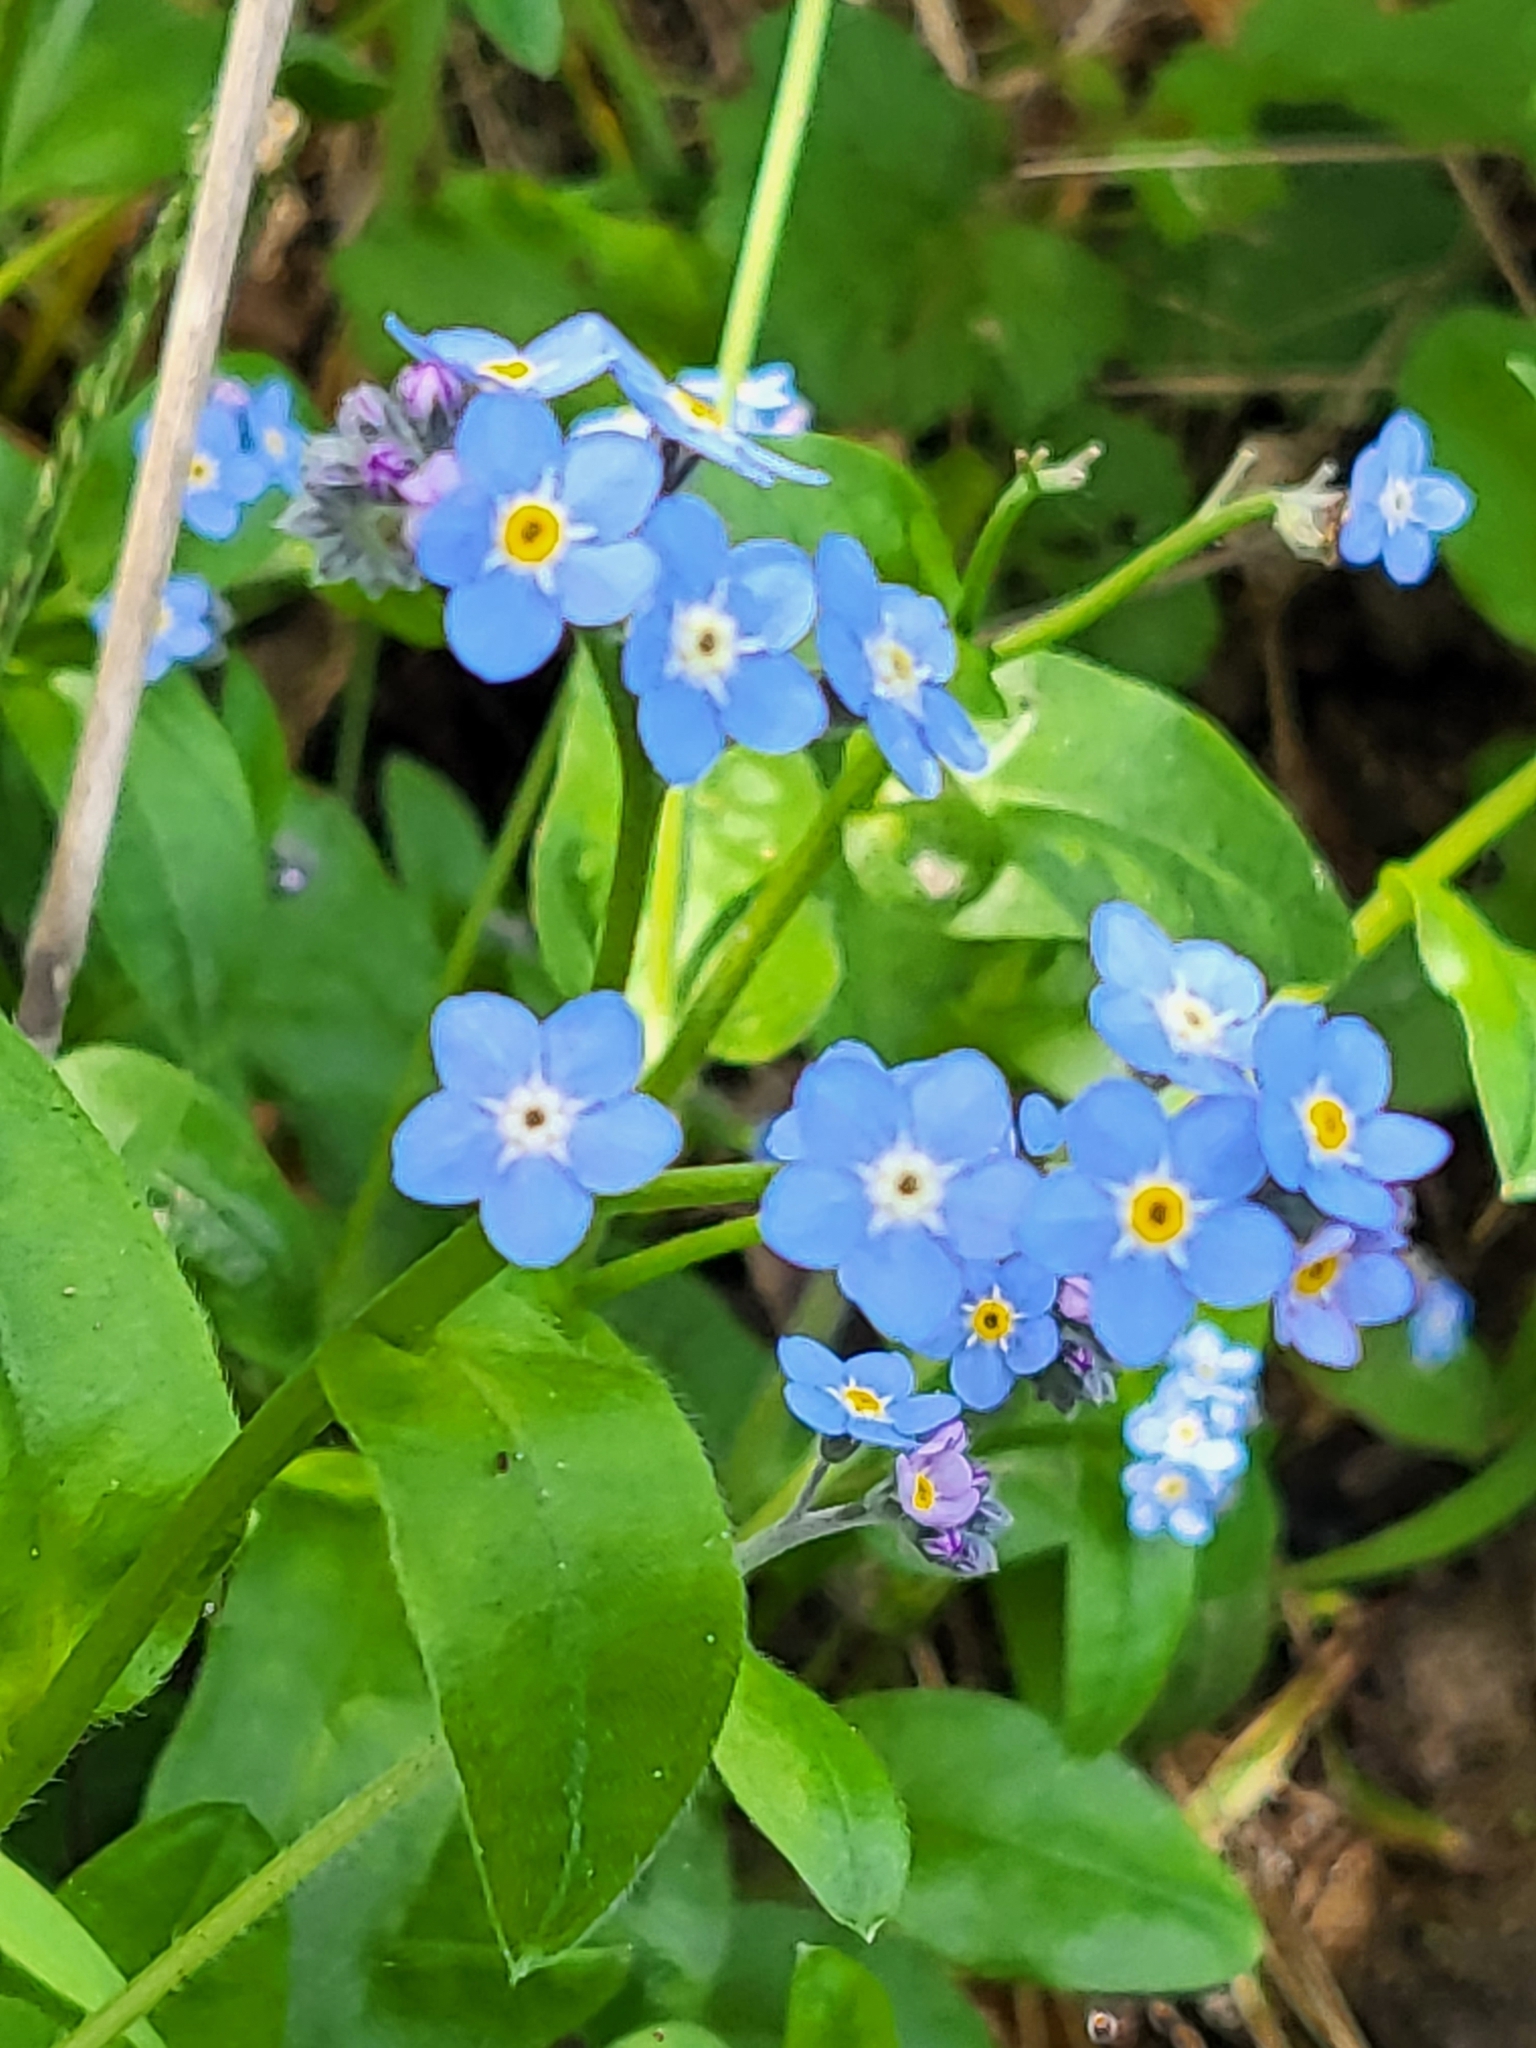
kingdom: Plantae
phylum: Tracheophyta
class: Magnoliopsida
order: Boraginales
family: Boraginaceae
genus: Myosotis
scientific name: Myosotis latifolia
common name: Broadleaf forget-me-not
